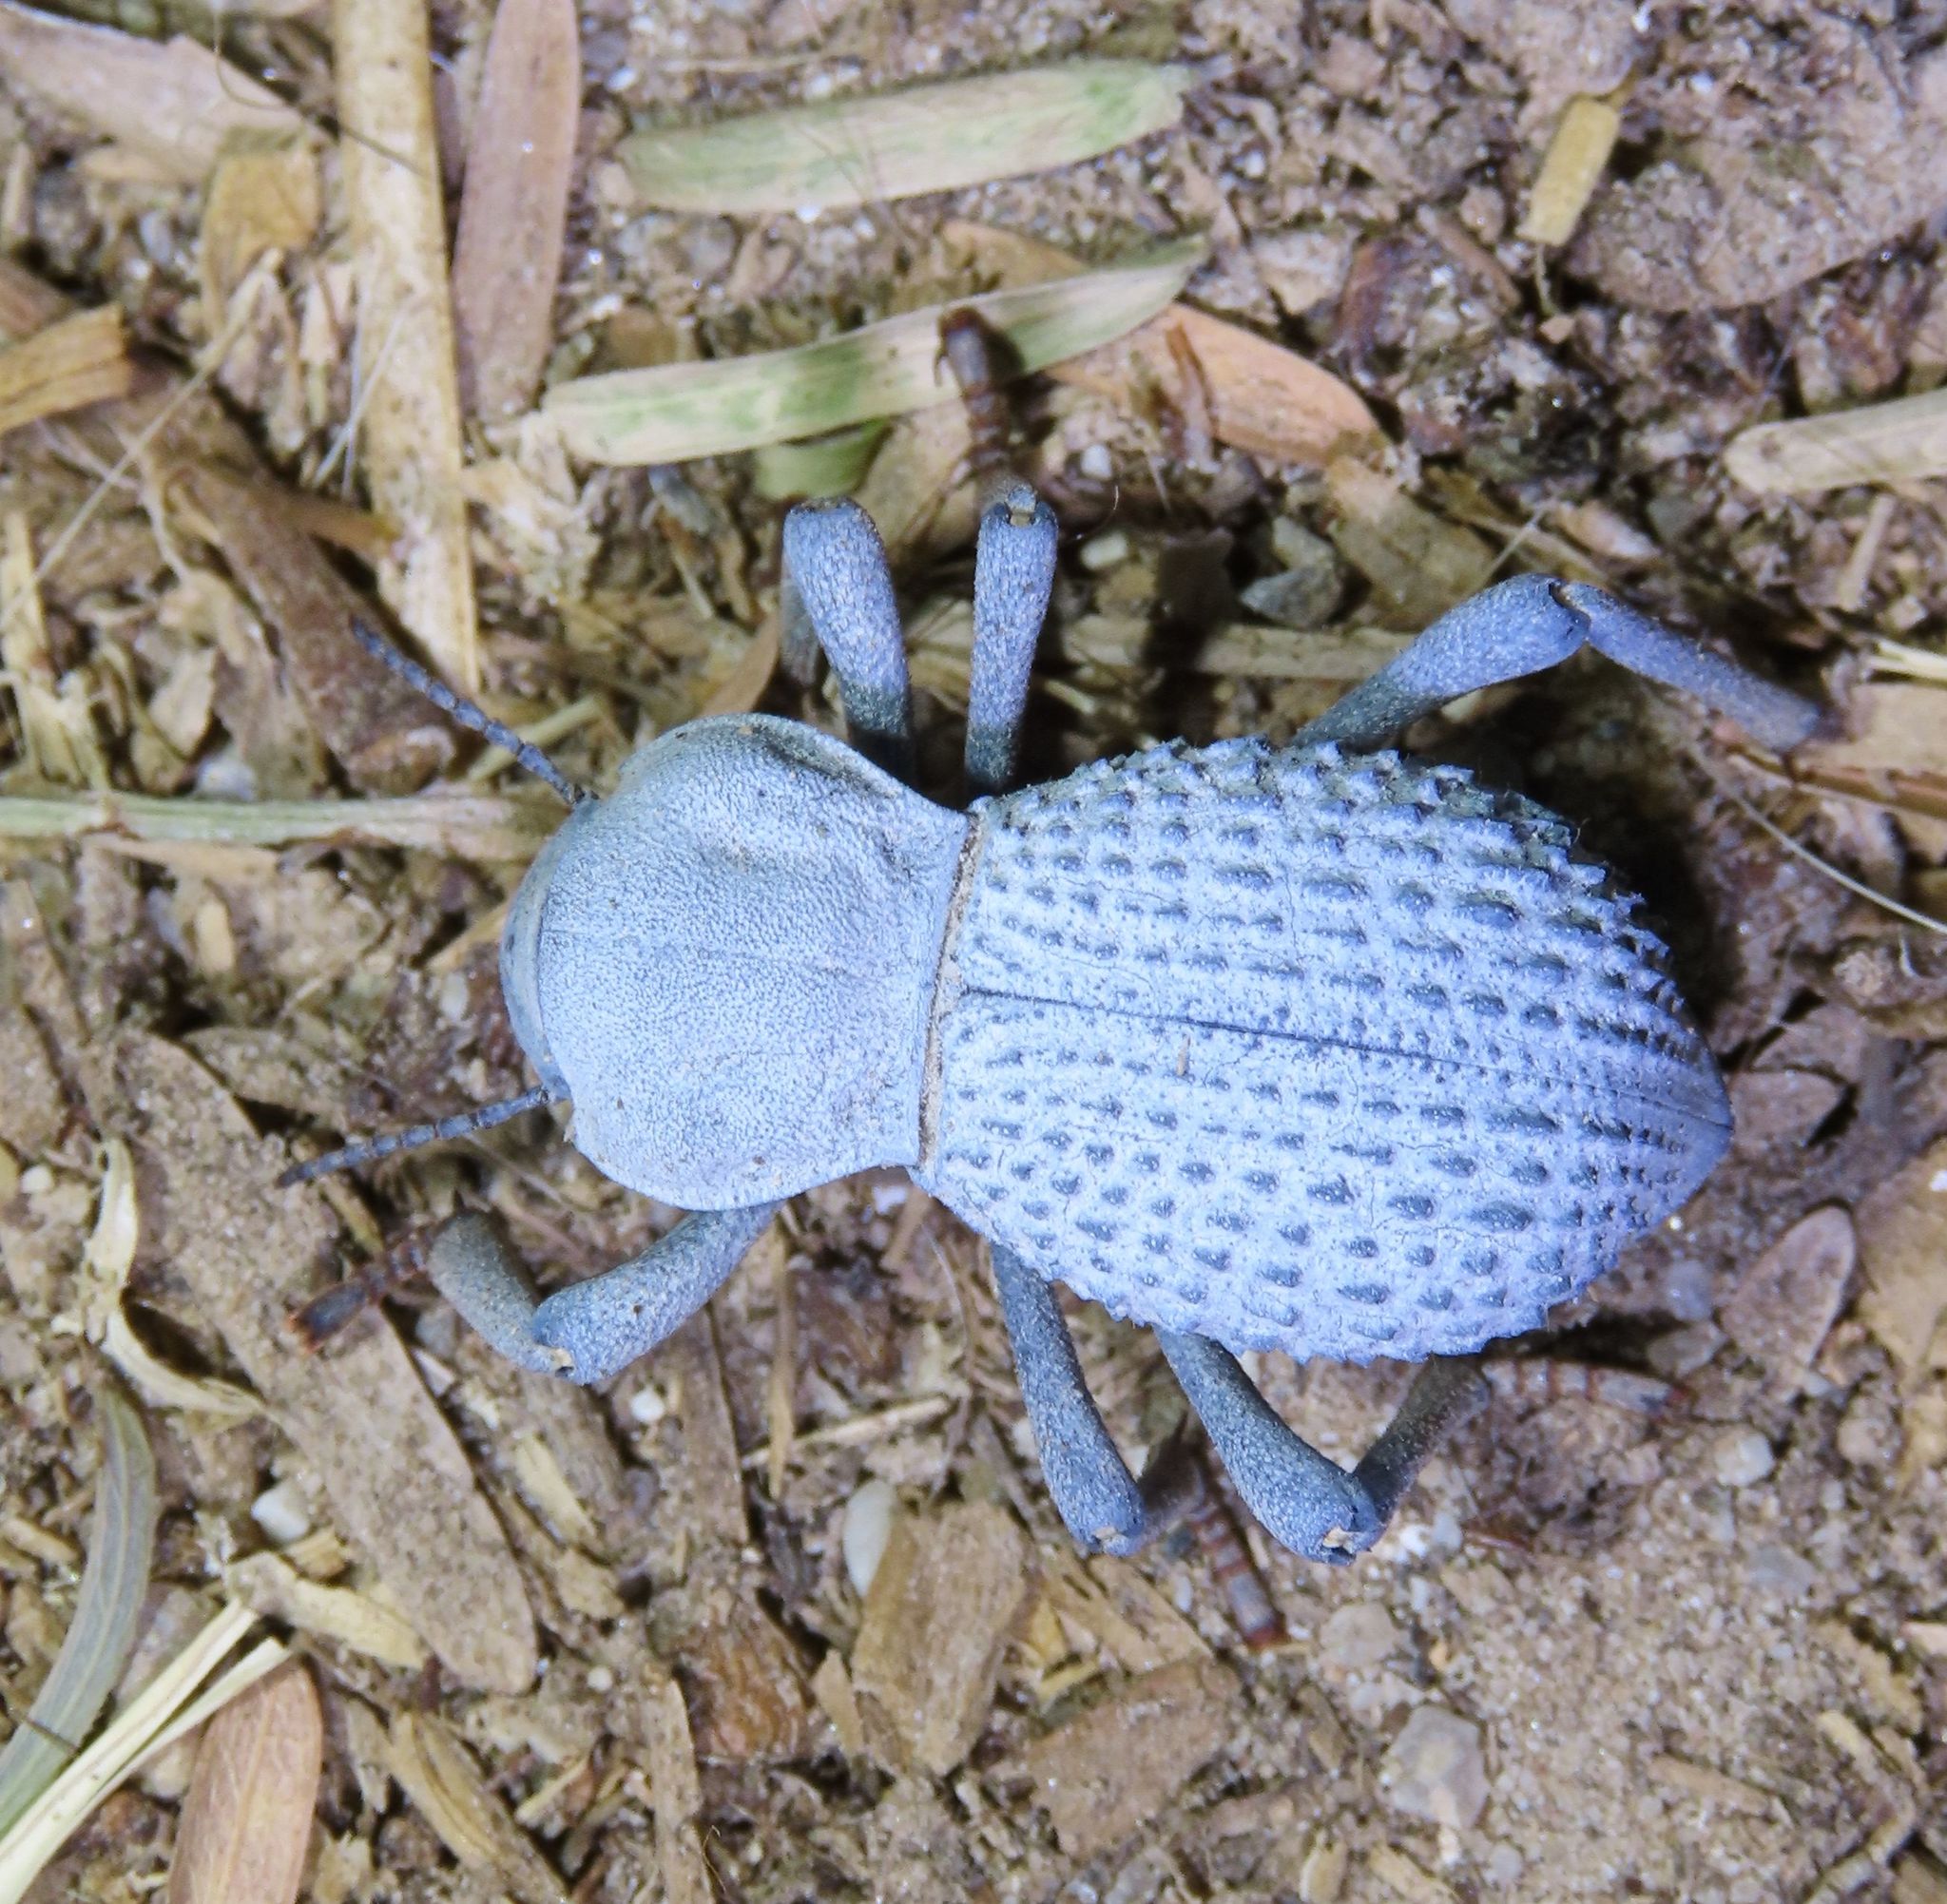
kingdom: Animalia
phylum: Arthropoda
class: Insecta
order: Coleoptera
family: Tenebrionidae
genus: Asbolus
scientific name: Asbolus verrucosus
